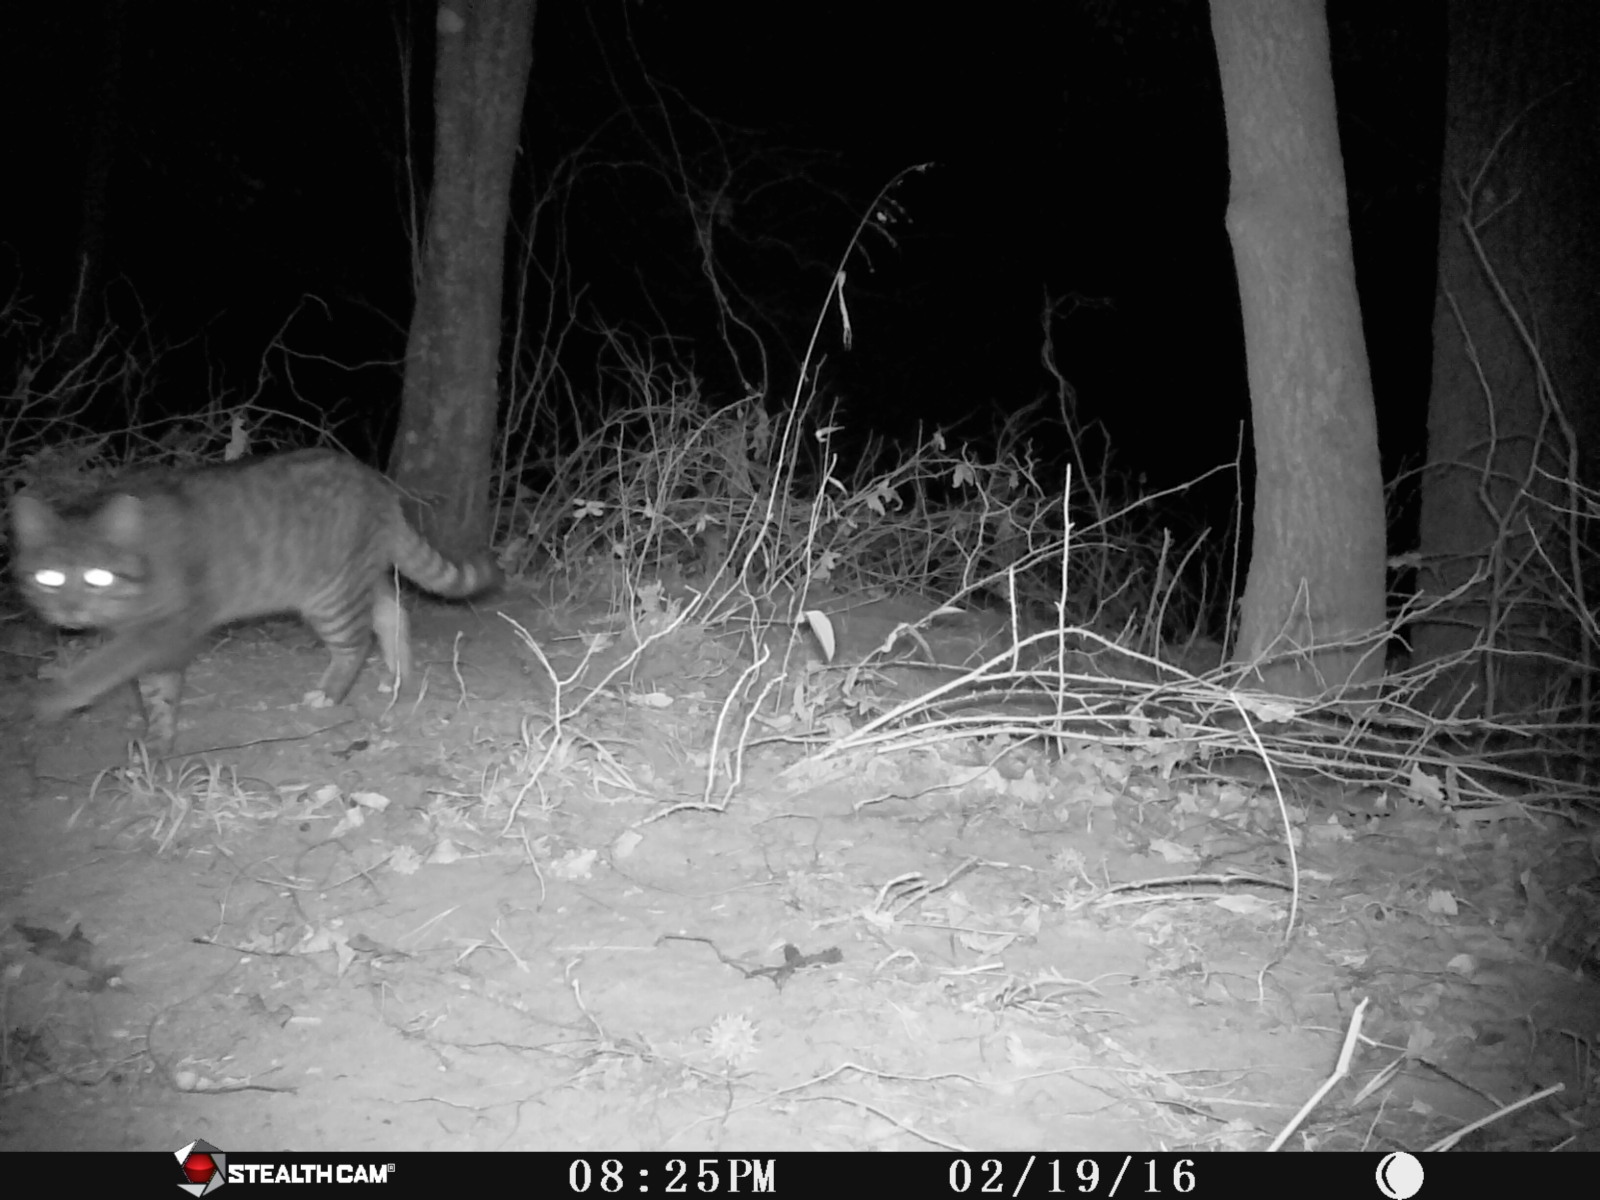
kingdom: Animalia
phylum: Chordata
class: Mammalia
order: Carnivora
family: Felidae
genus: Felis
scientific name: Felis catus
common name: Domestic cat
